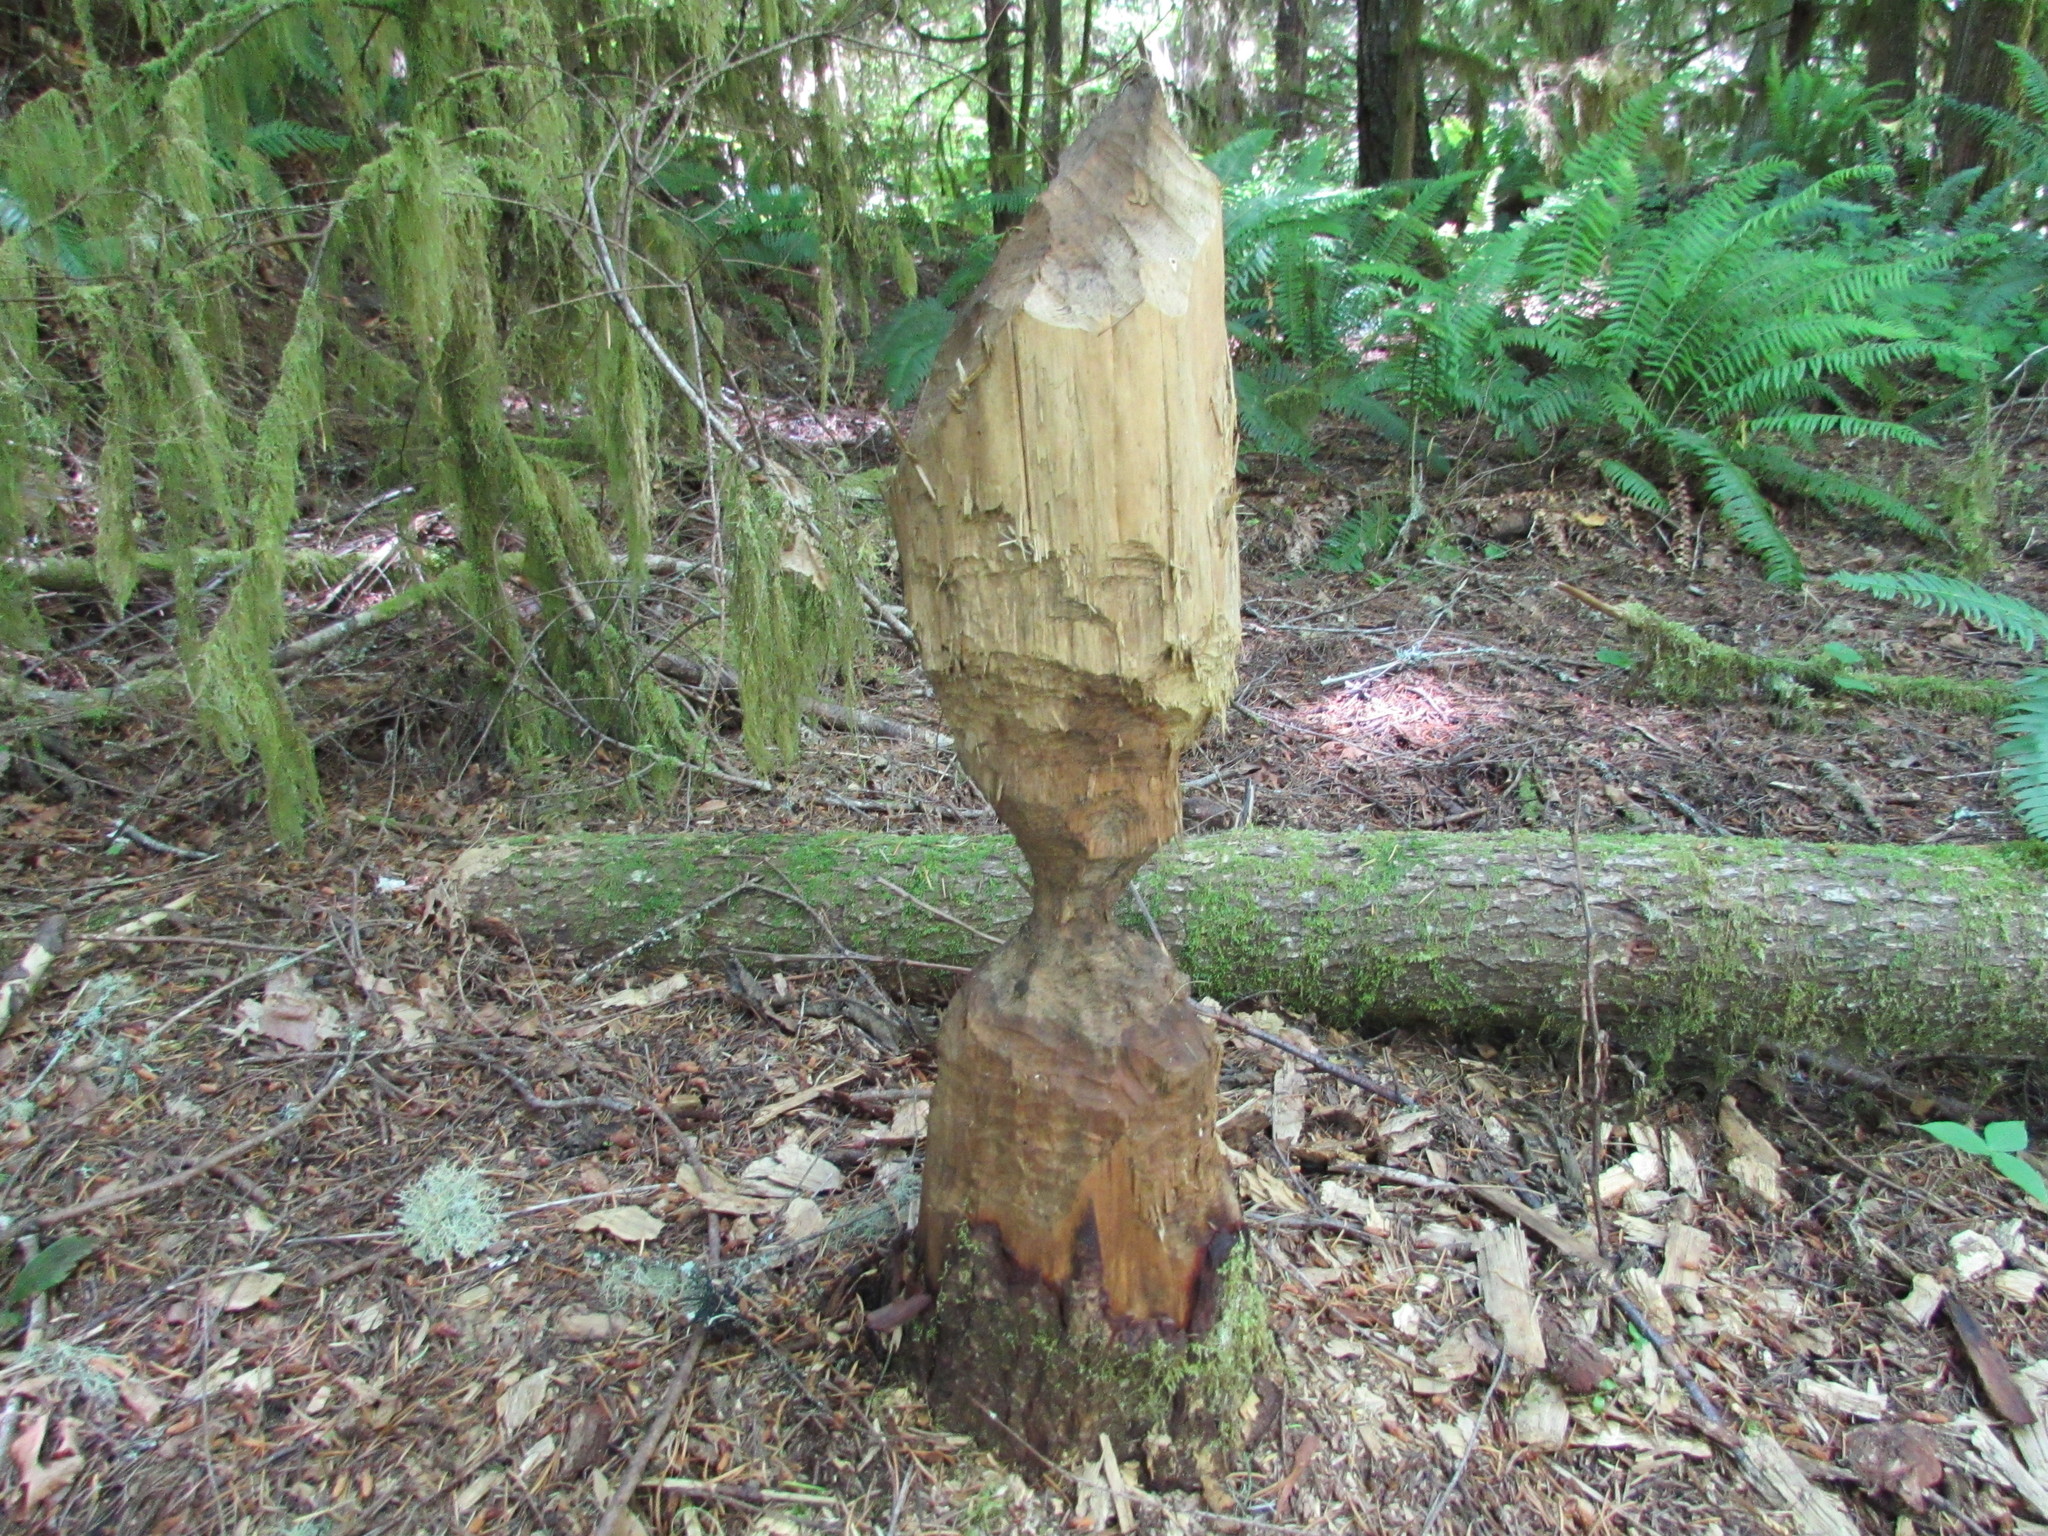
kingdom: Animalia
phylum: Chordata
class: Mammalia
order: Rodentia
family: Castoridae
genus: Castor
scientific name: Castor canadensis
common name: American beaver
